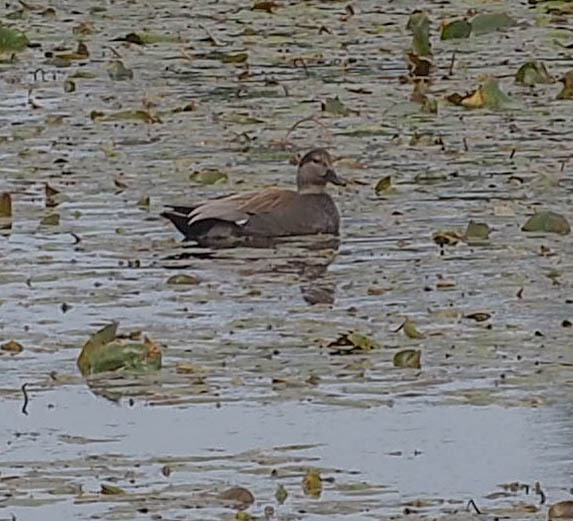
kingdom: Animalia
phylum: Chordata
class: Aves
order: Anseriformes
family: Anatidae
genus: Mareca
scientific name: Mareca strepera
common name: Gadwall
